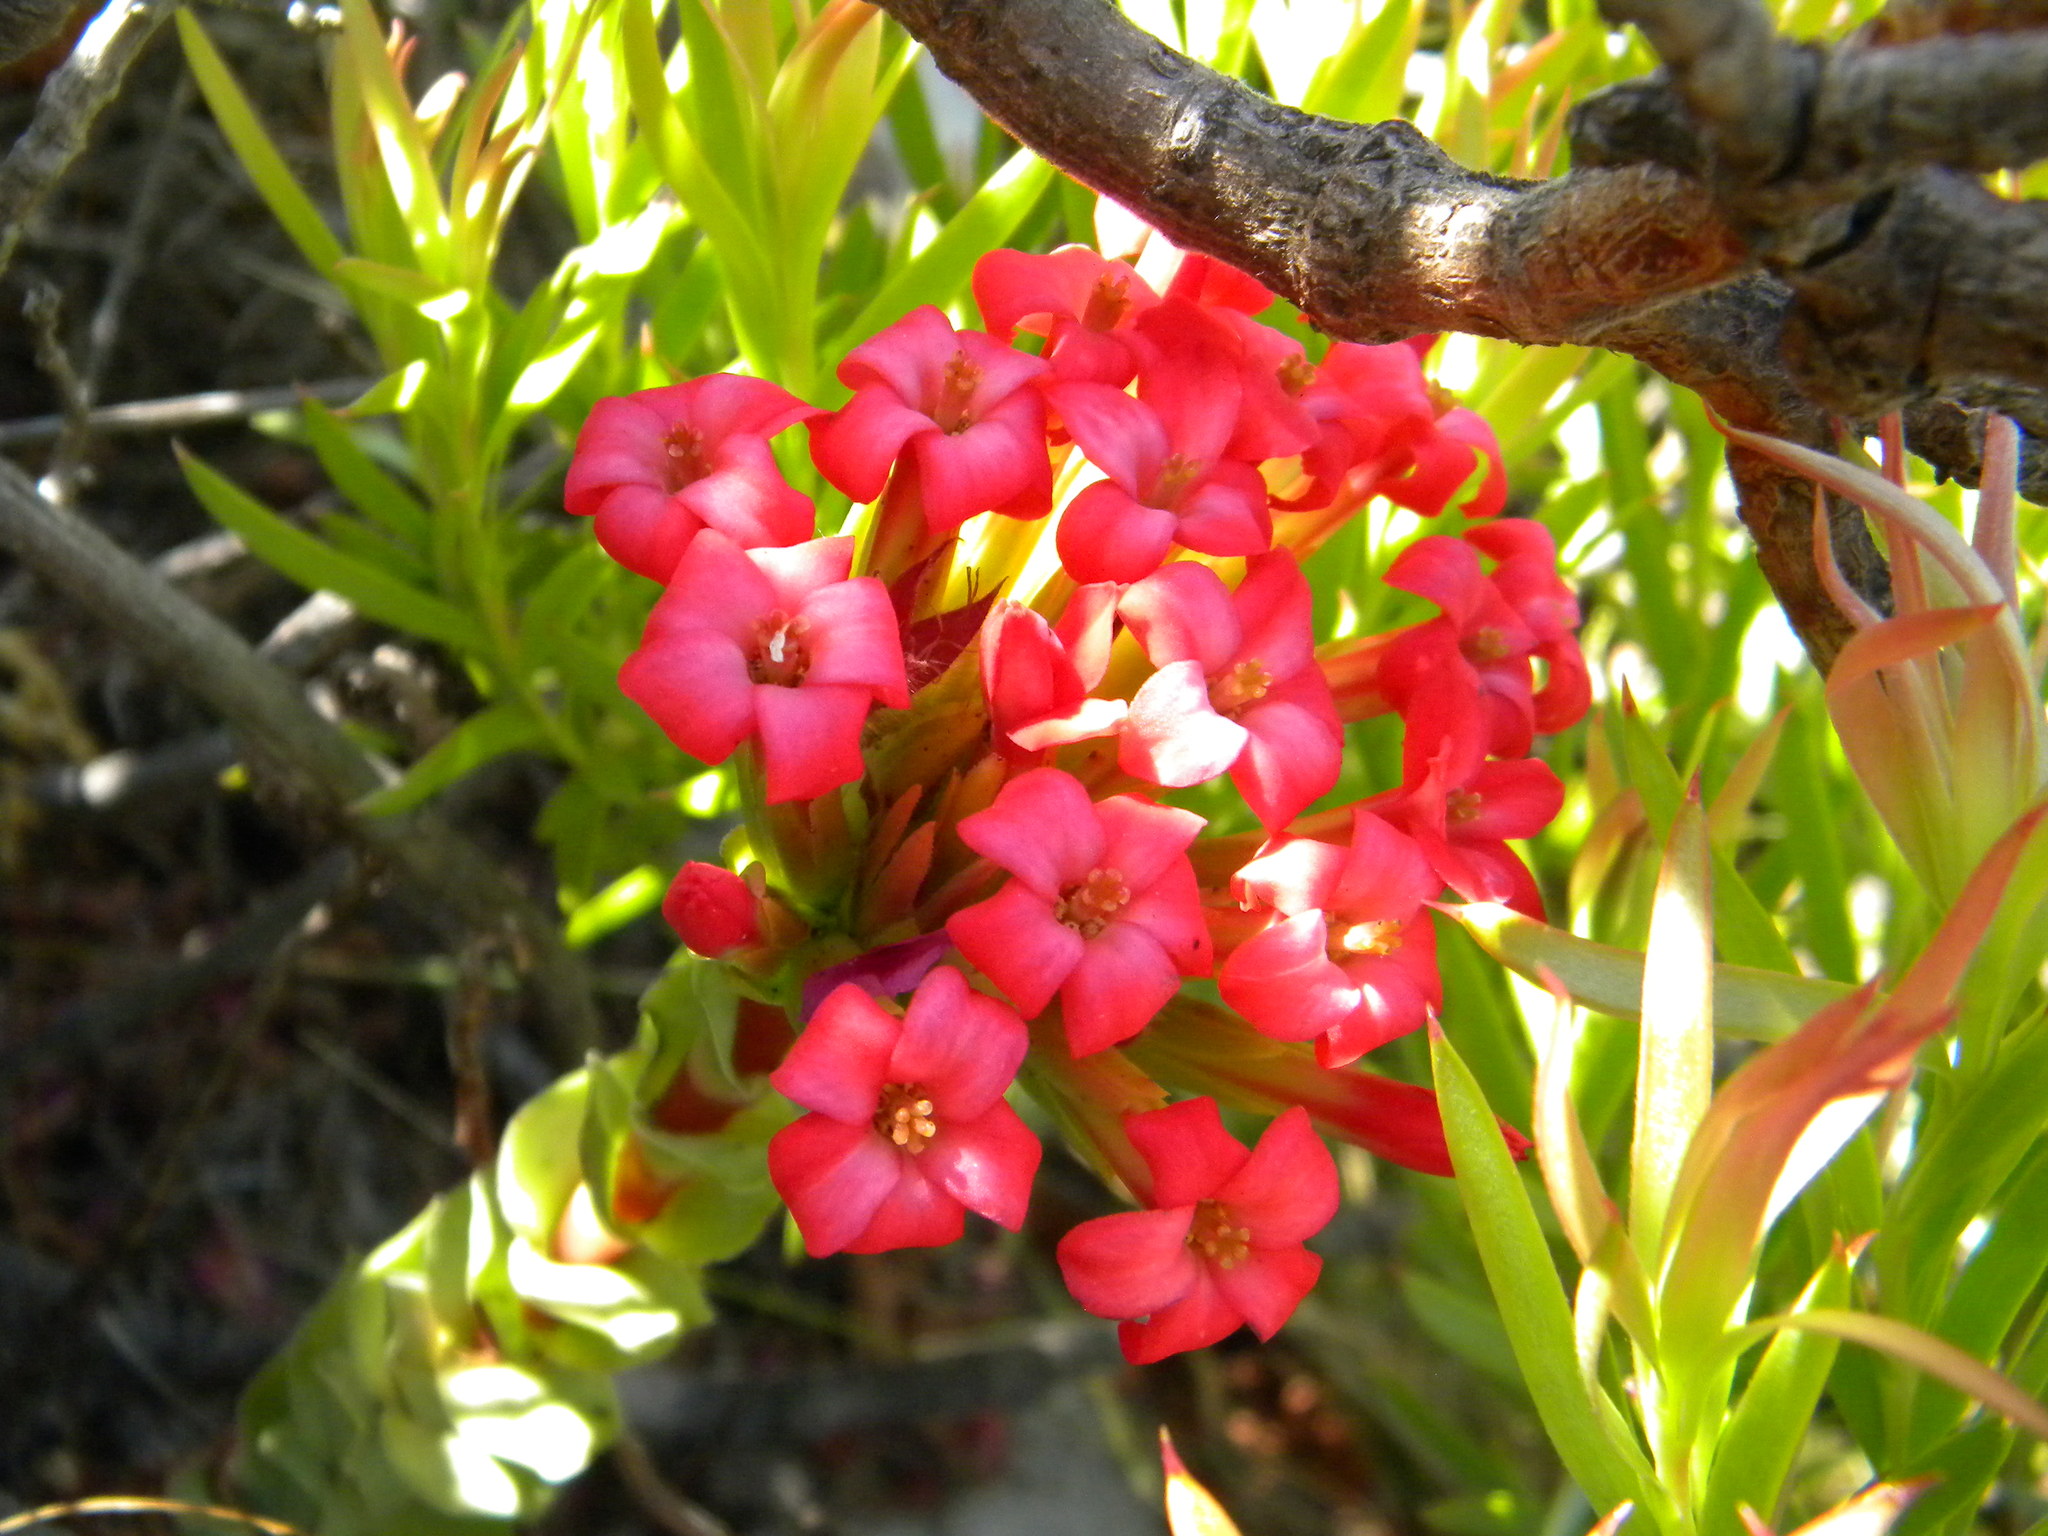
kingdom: Plantae
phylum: Tracheophyta
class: Magnoliopsida
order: Saxifragales
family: Crassulaceae
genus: Crassula
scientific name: Crassula coccinea
